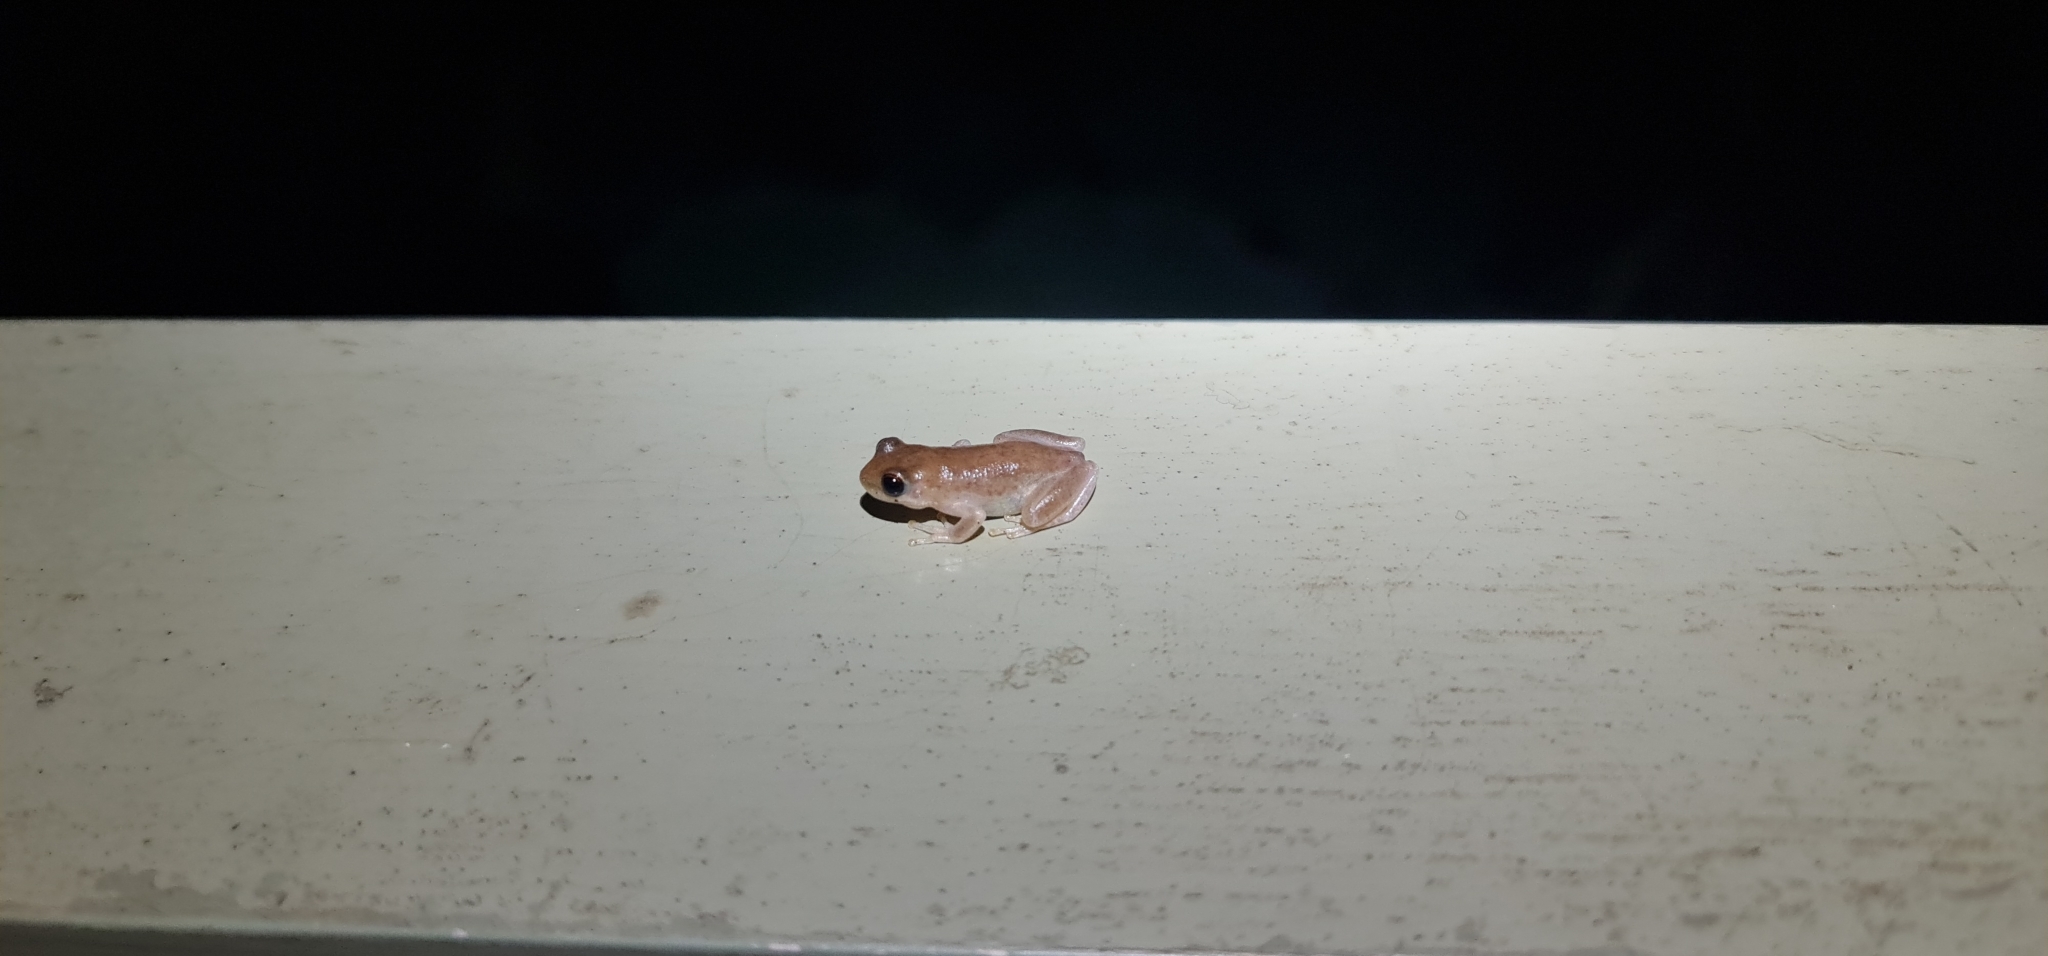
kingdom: Animalia
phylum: Chordata
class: Amphibia
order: Anura
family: Pelodryadidae
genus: Litoria
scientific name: Litoria rubella
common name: Desert tree frog
